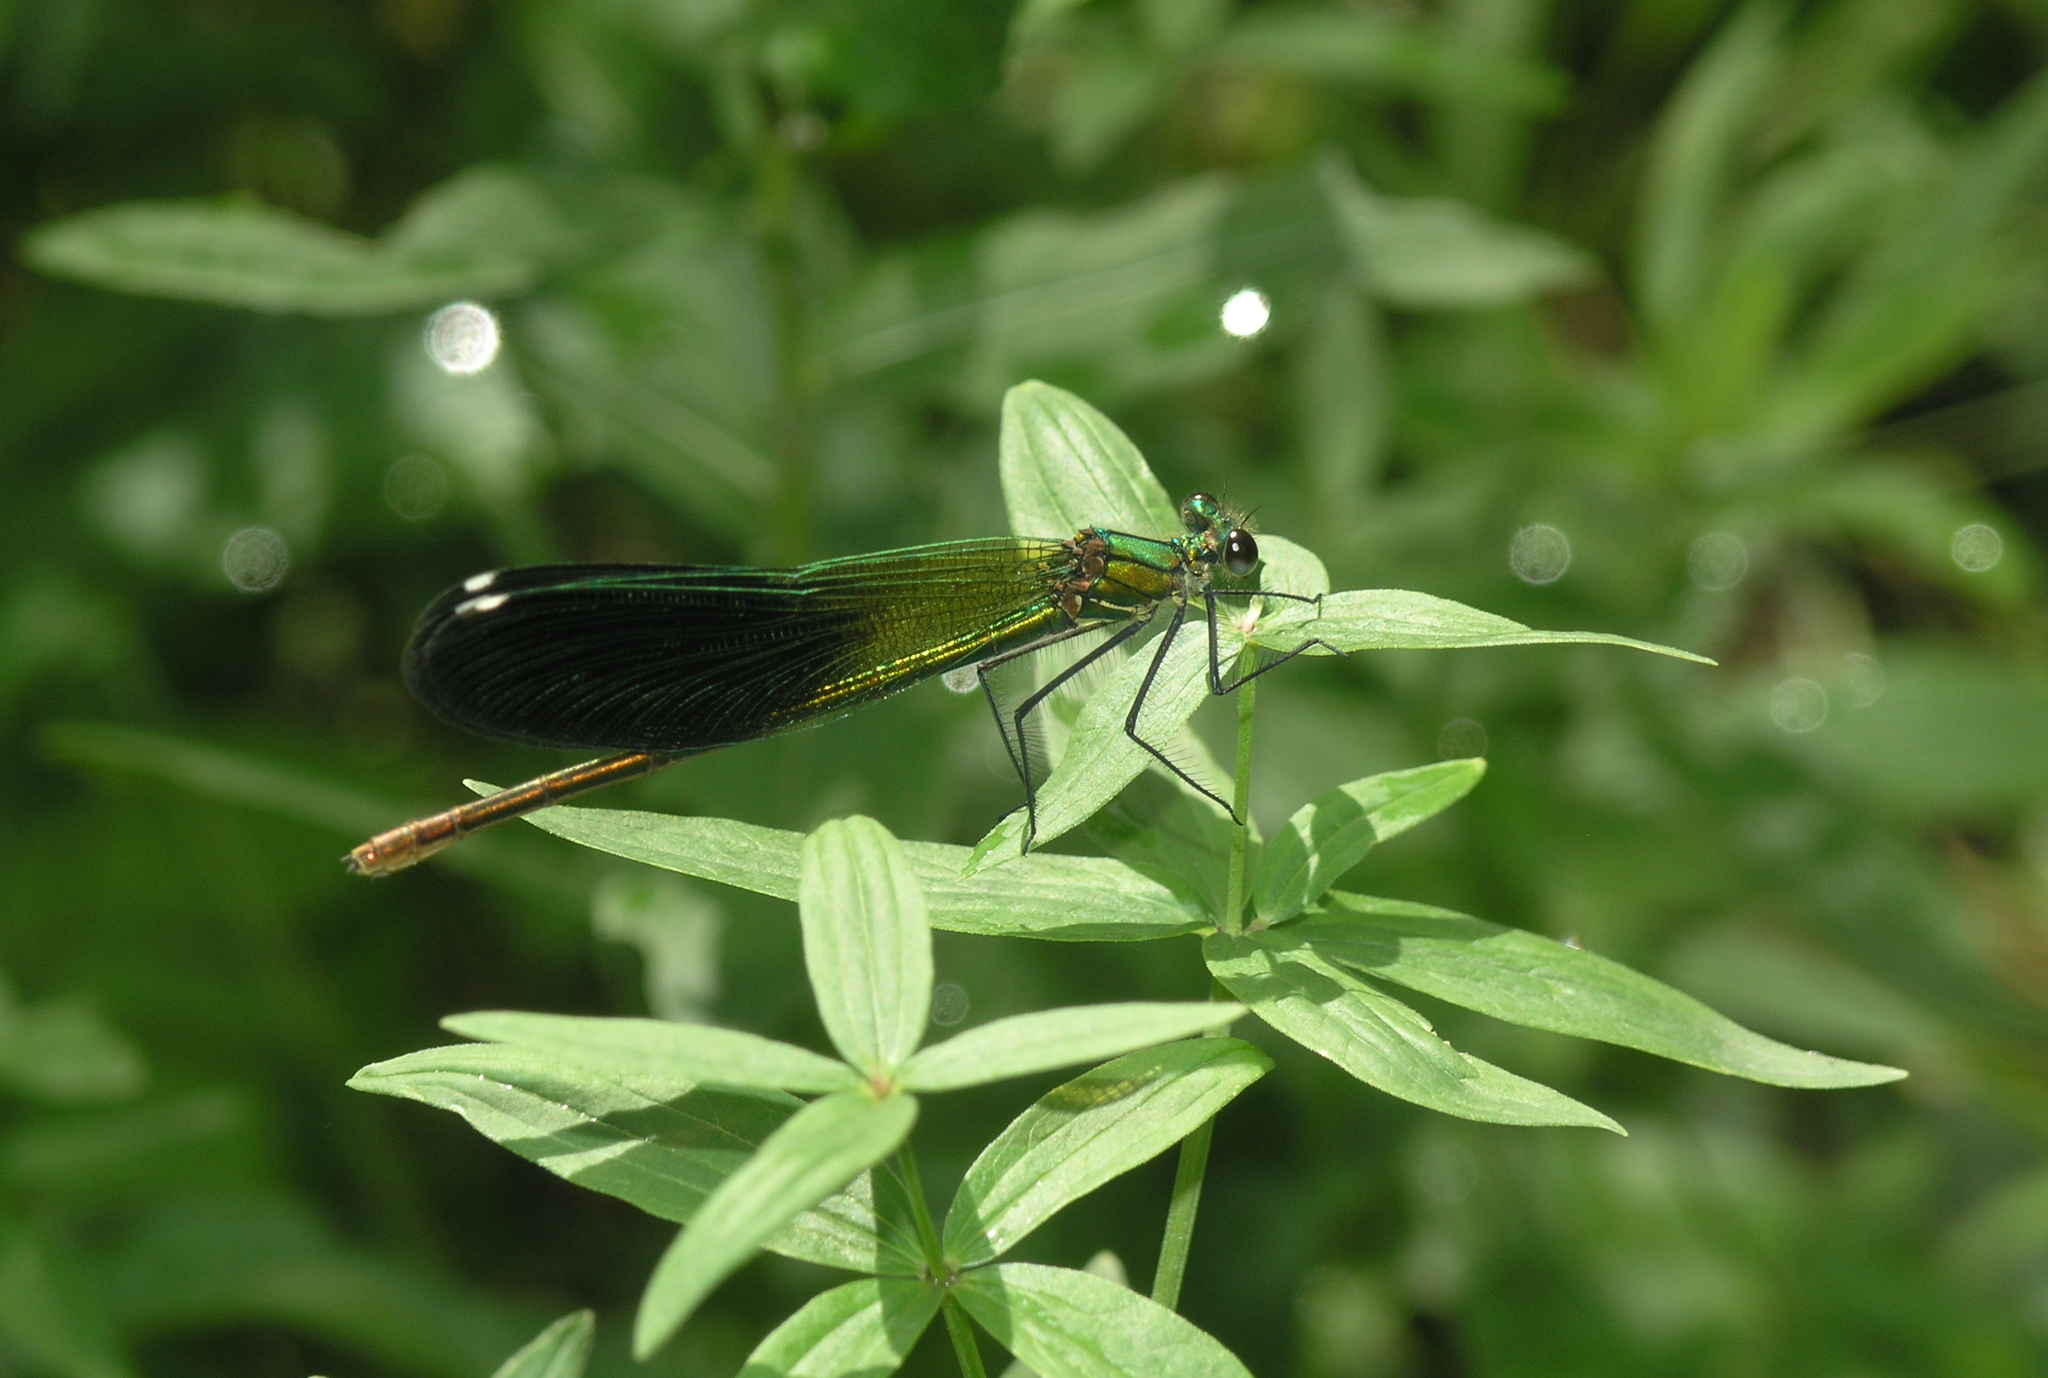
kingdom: Animalia
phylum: Arthropoda
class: Insecta
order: Odonata
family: Calopterygidae
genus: Calopteryx
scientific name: Calopteryx splendens
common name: Banded demoiselle
